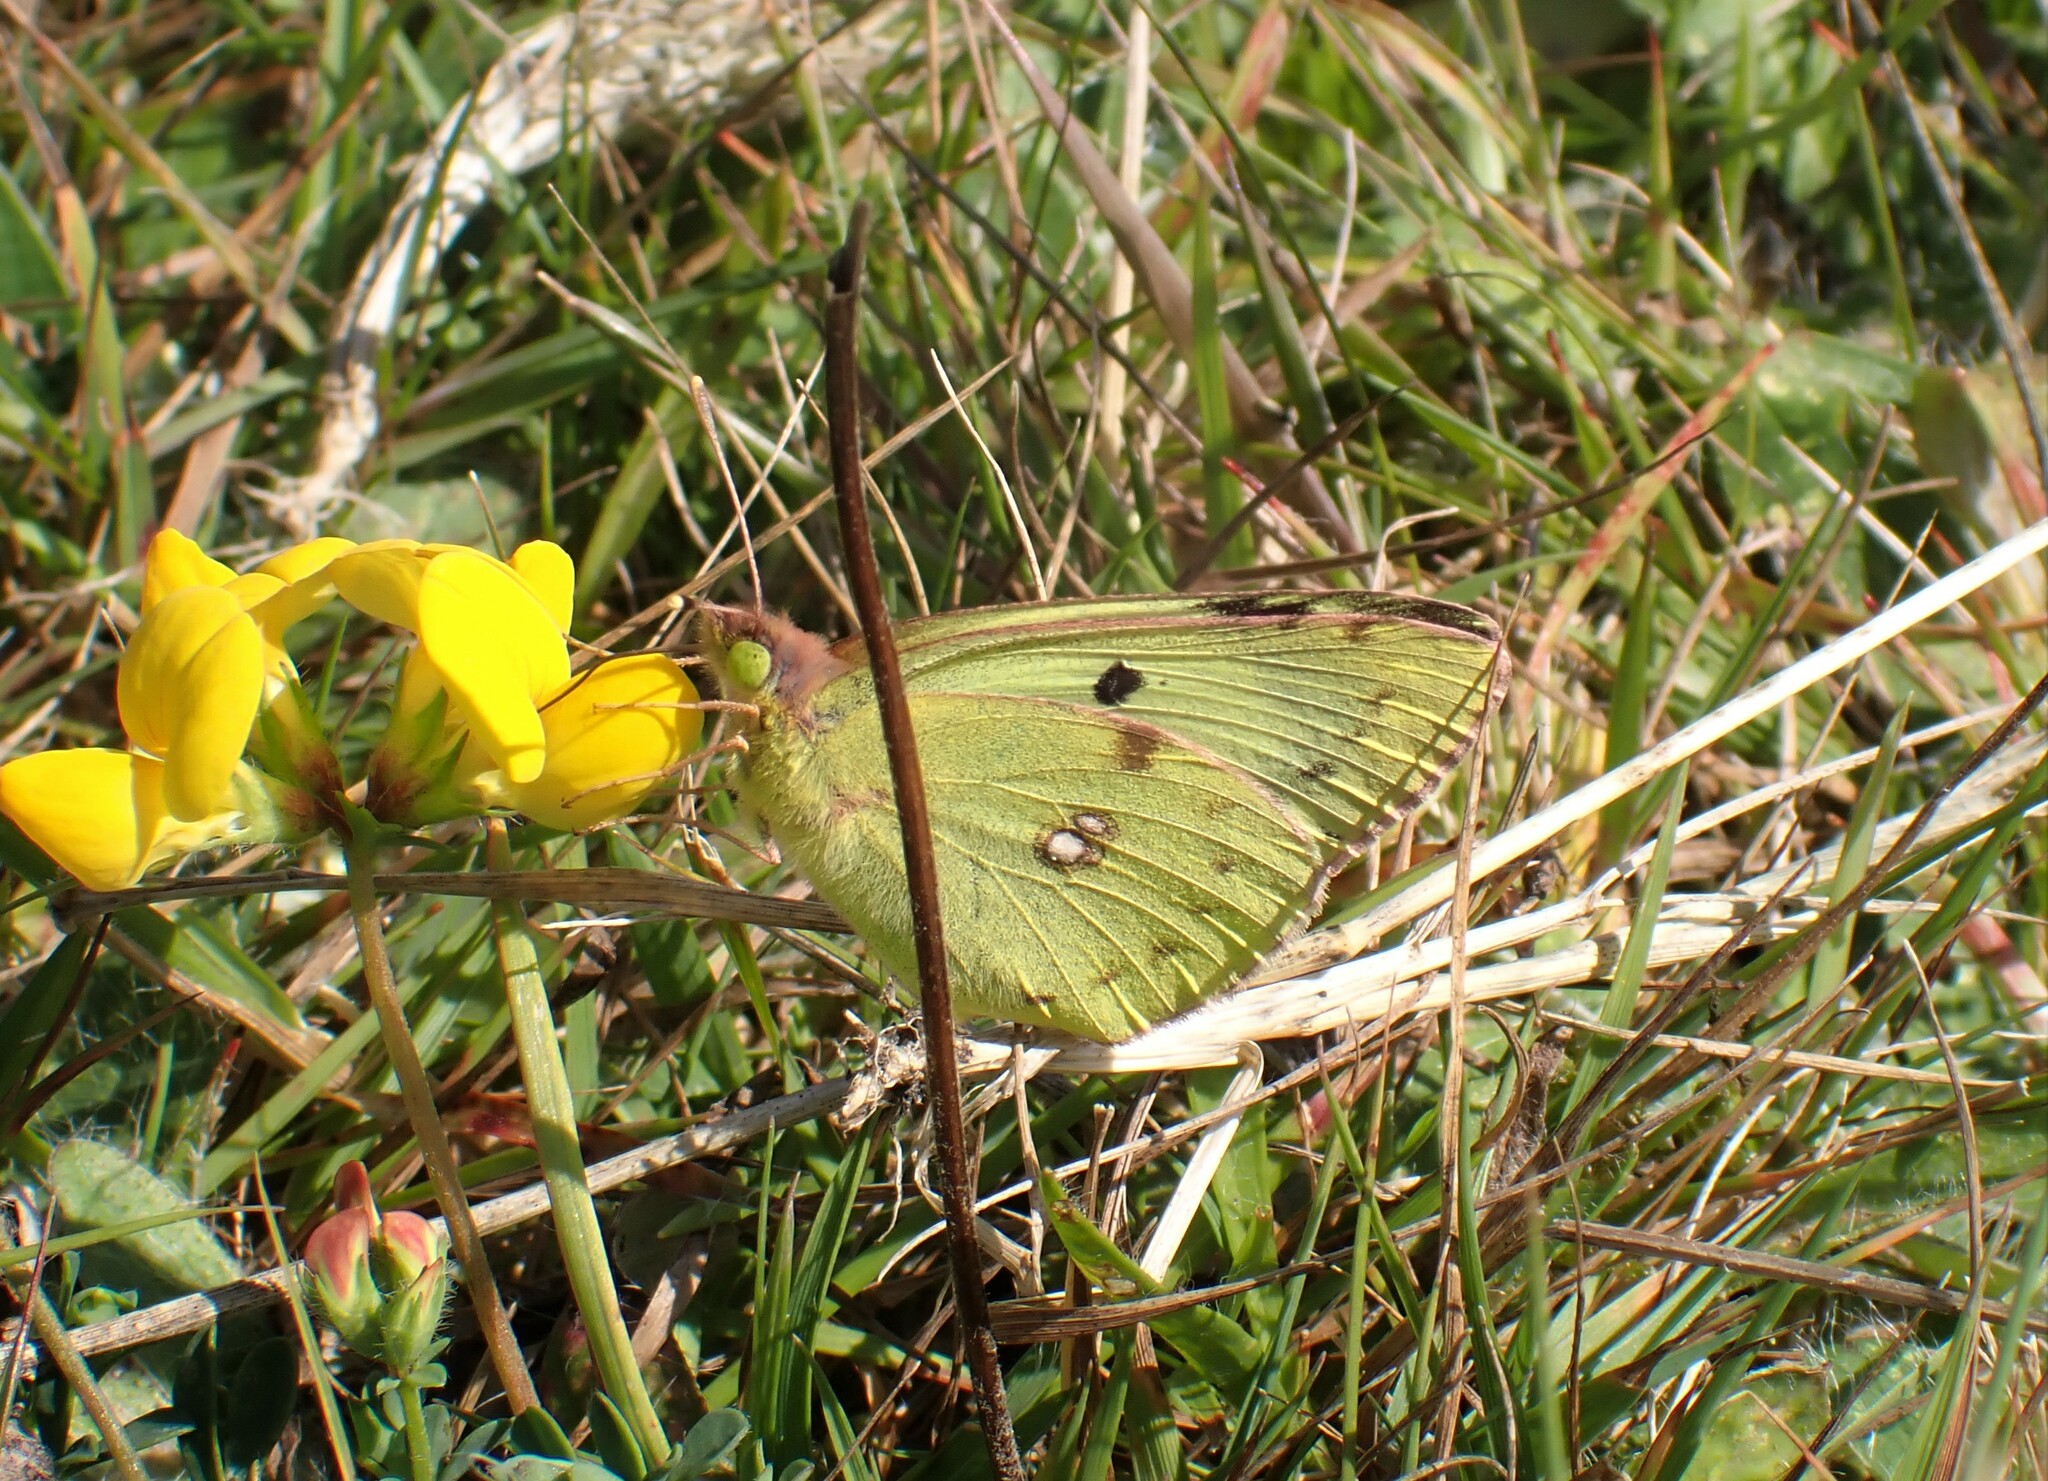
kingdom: Animalia
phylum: Arthropoda
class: Insecta
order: Lepidoptera
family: Pieridae
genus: Colias
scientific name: Colias hyale
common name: Pale clouded yellow
